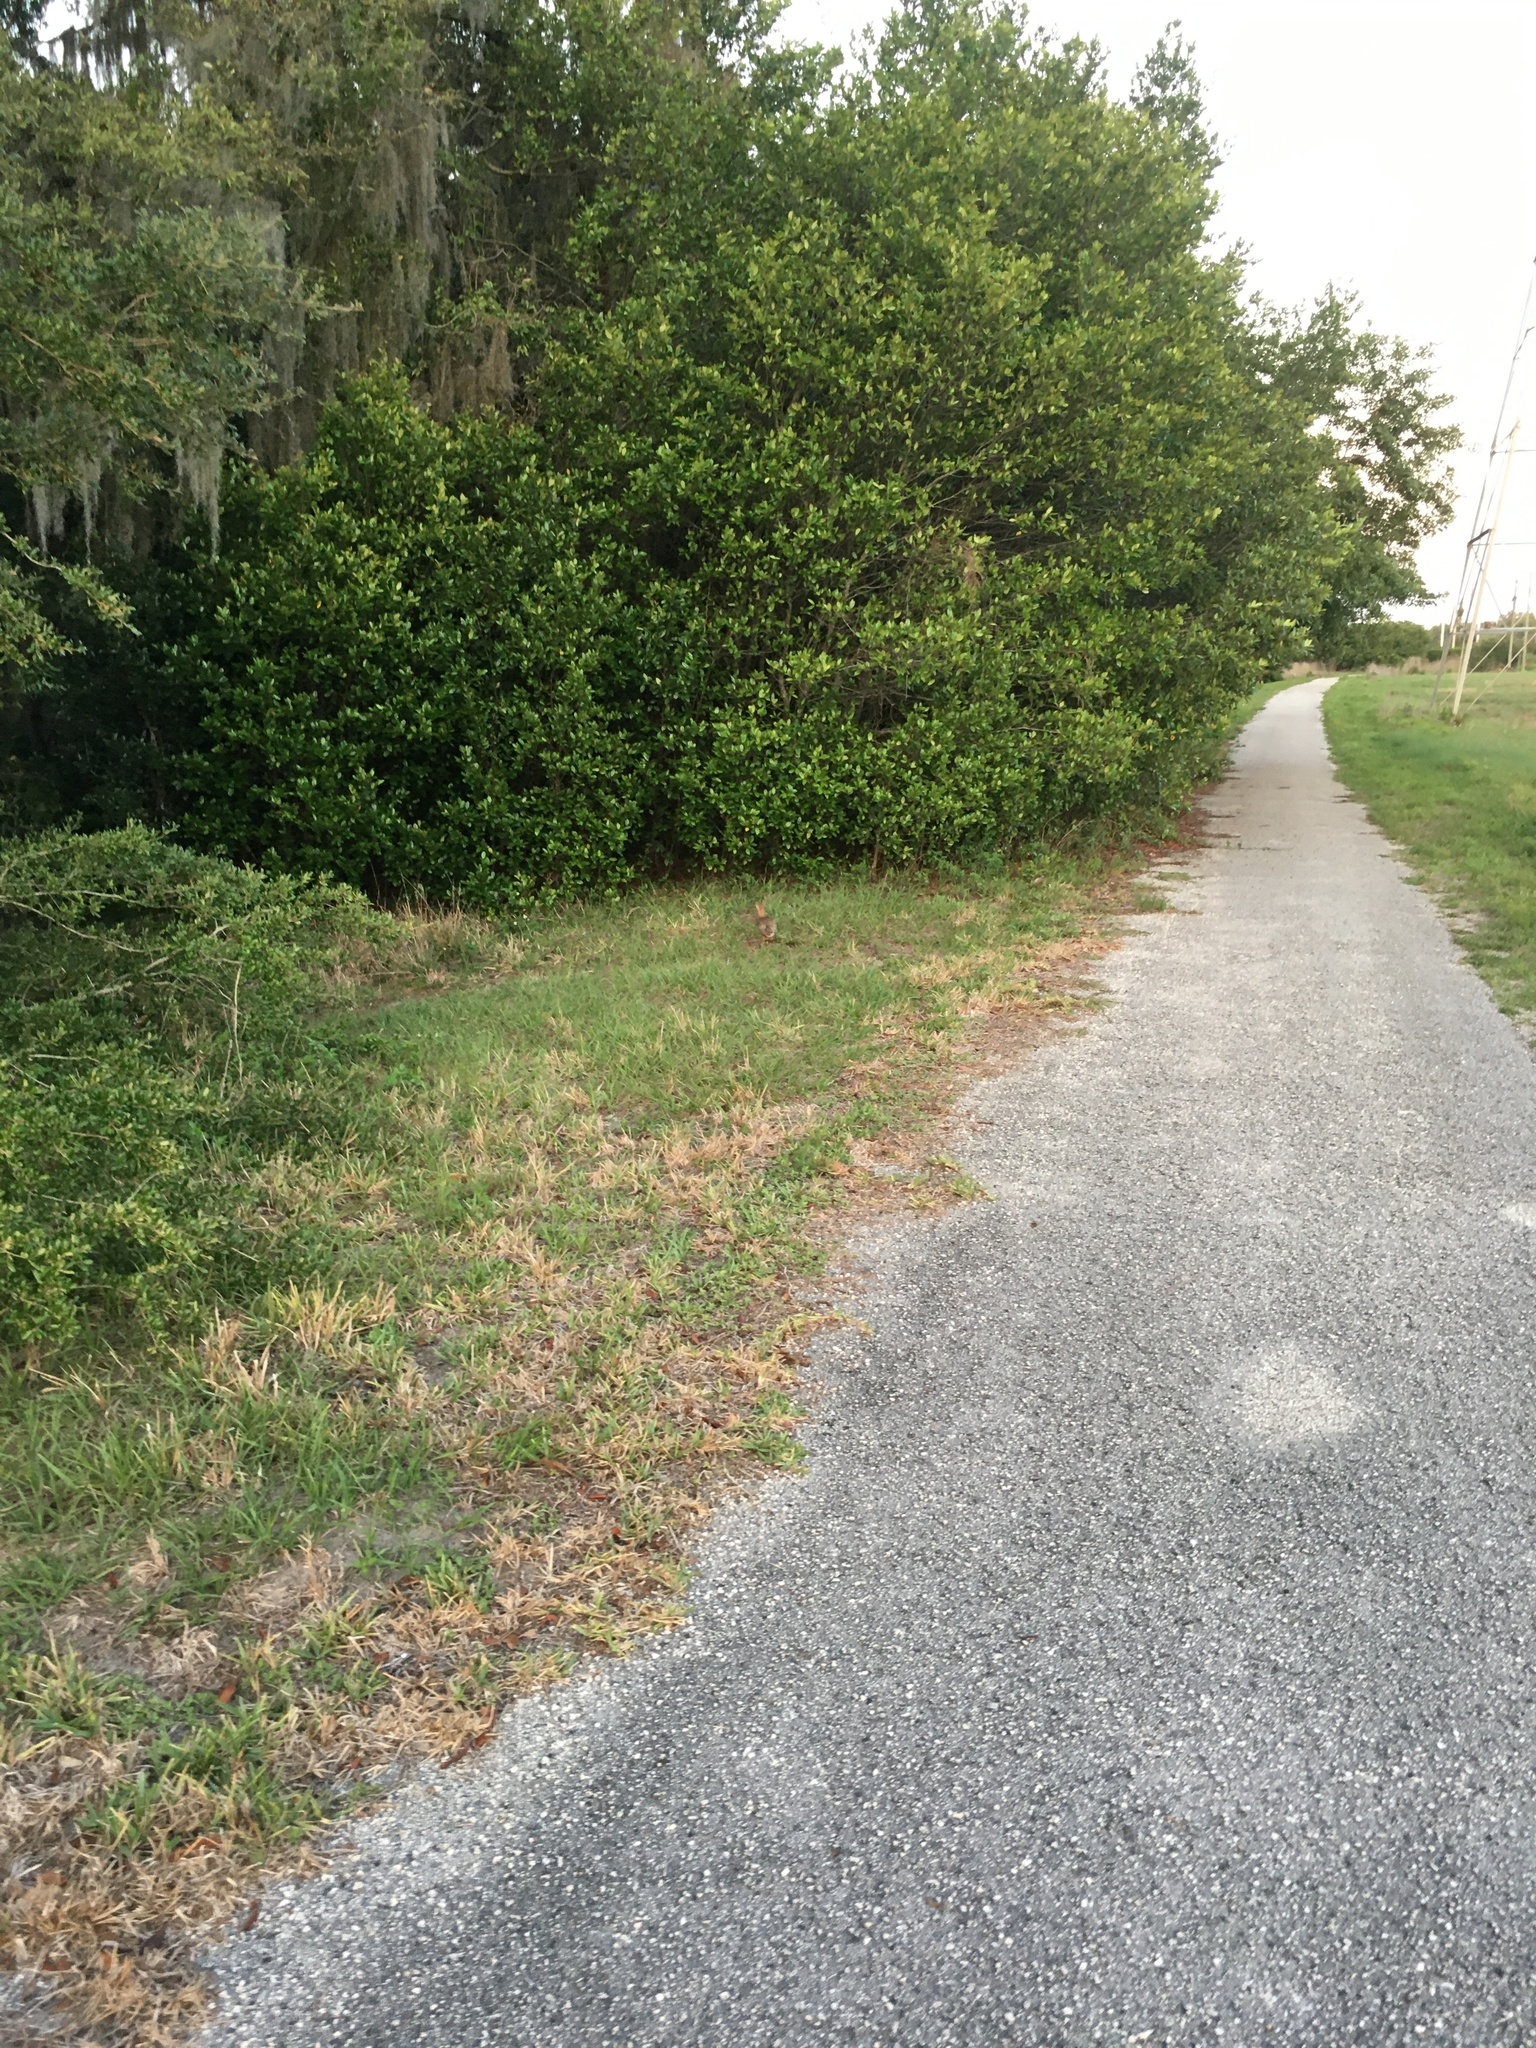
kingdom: Animalia
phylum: Chordata
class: Mammalia
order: Lagomorpha
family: Leporidae
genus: Sylvilagus
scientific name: Sylvilagus floridanus
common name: Eastern cottontail
